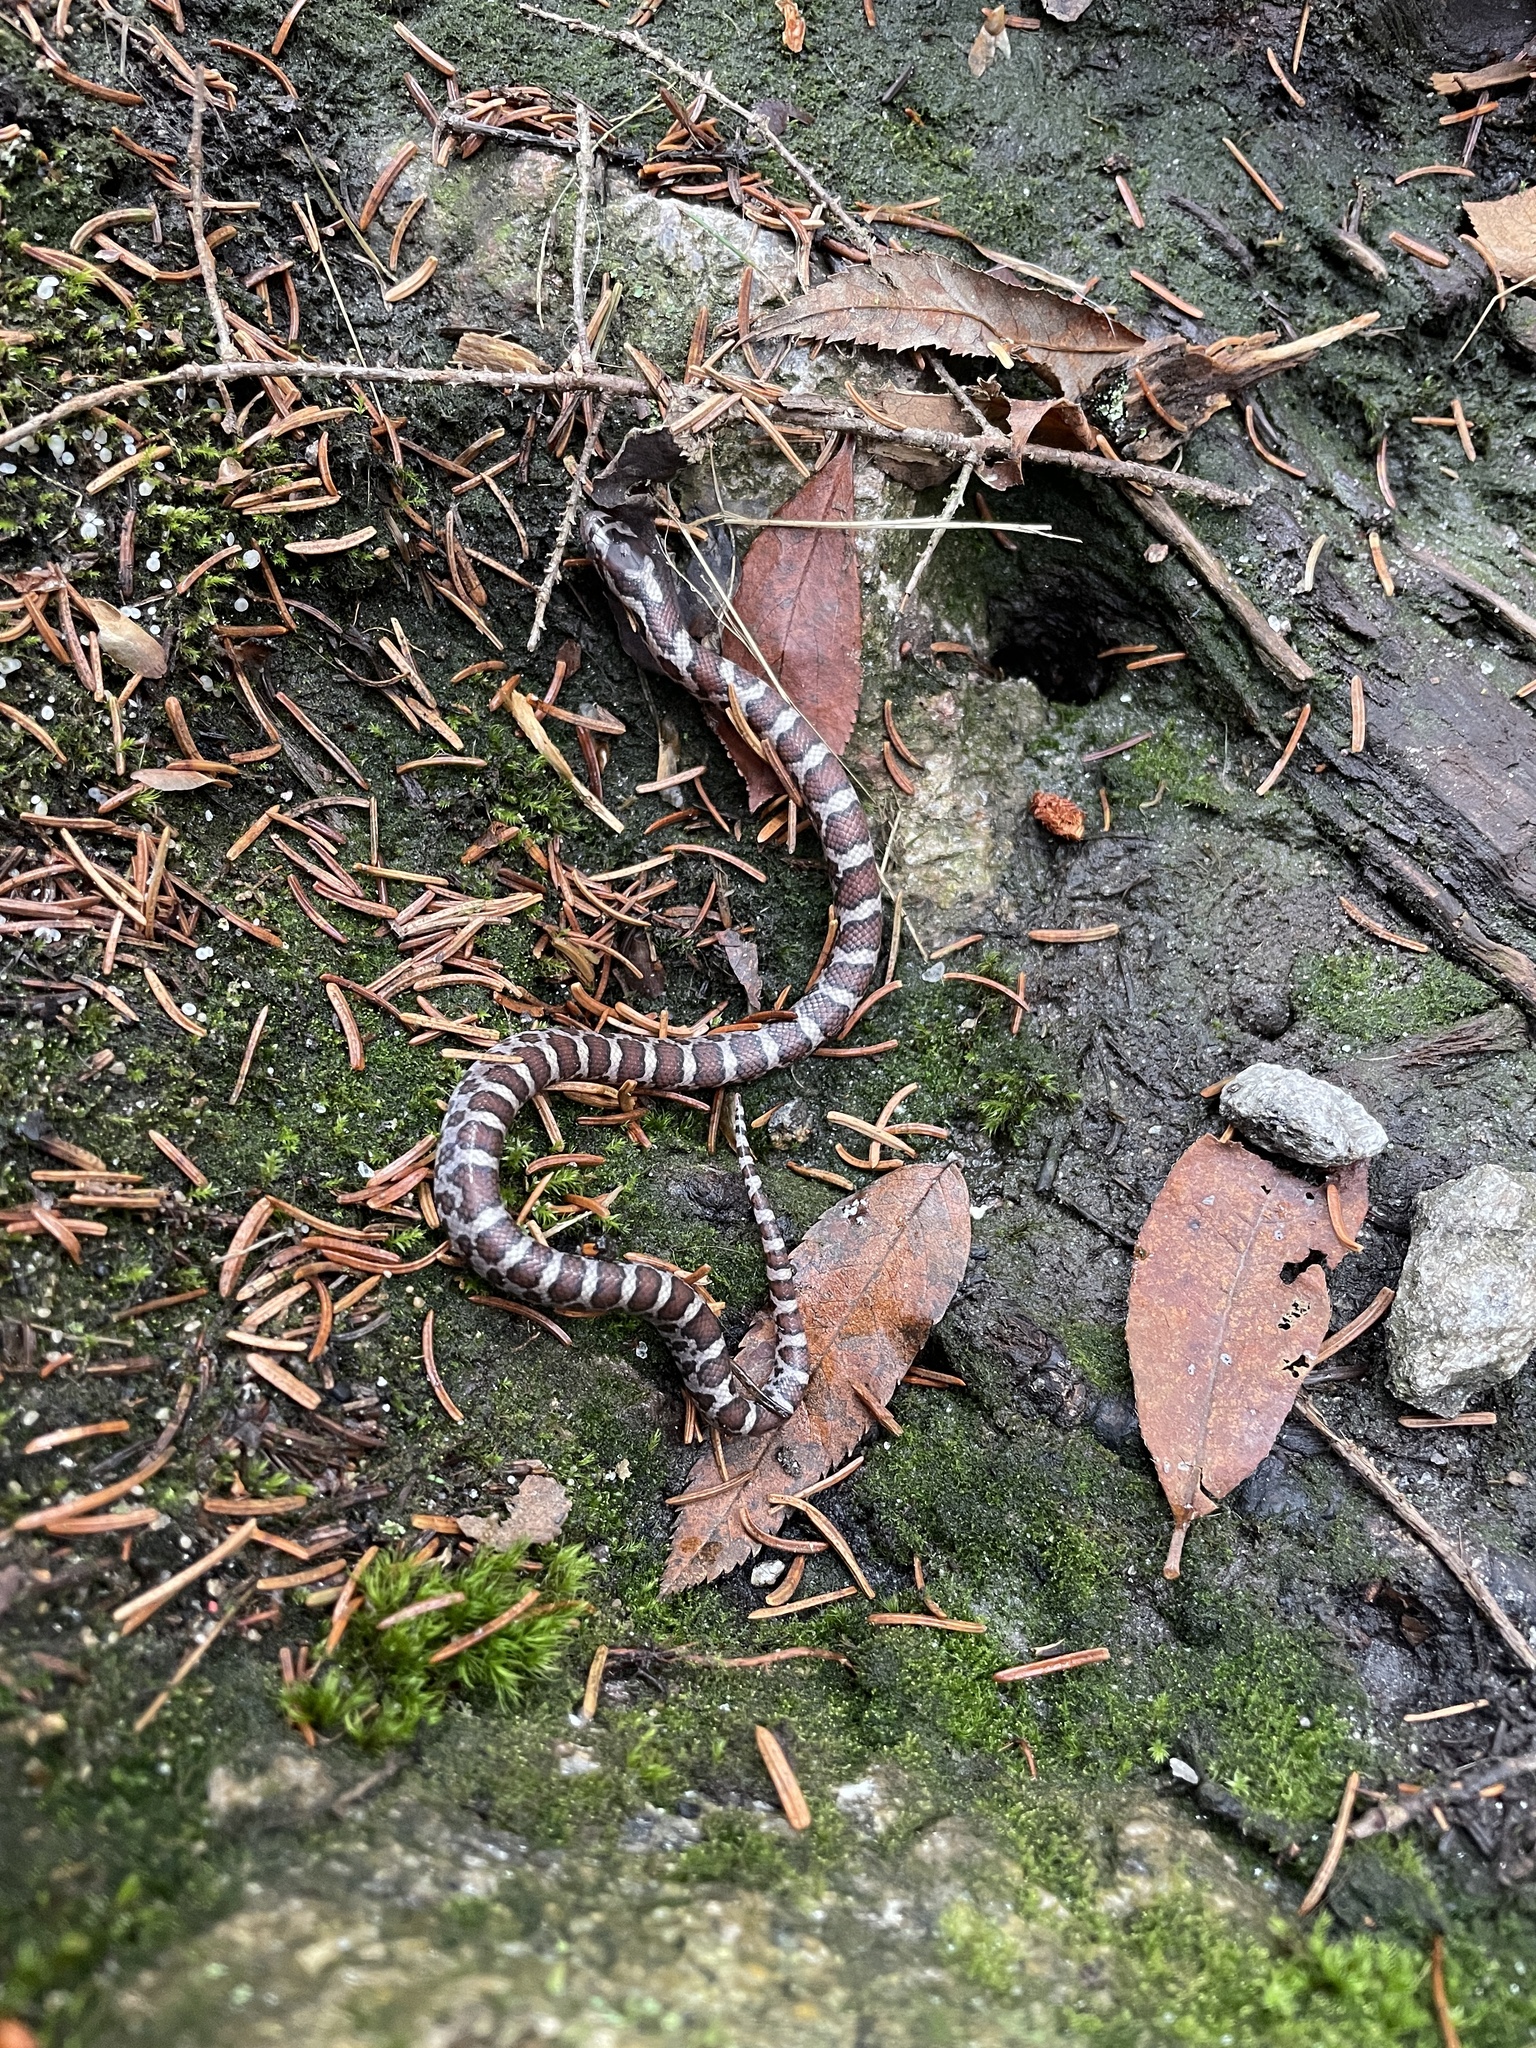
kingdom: Animalia
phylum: Chordata
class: Squamata
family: Colubridae
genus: Lampropeltis
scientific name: Lampropeltis triangulum
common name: Eastern milksnake
